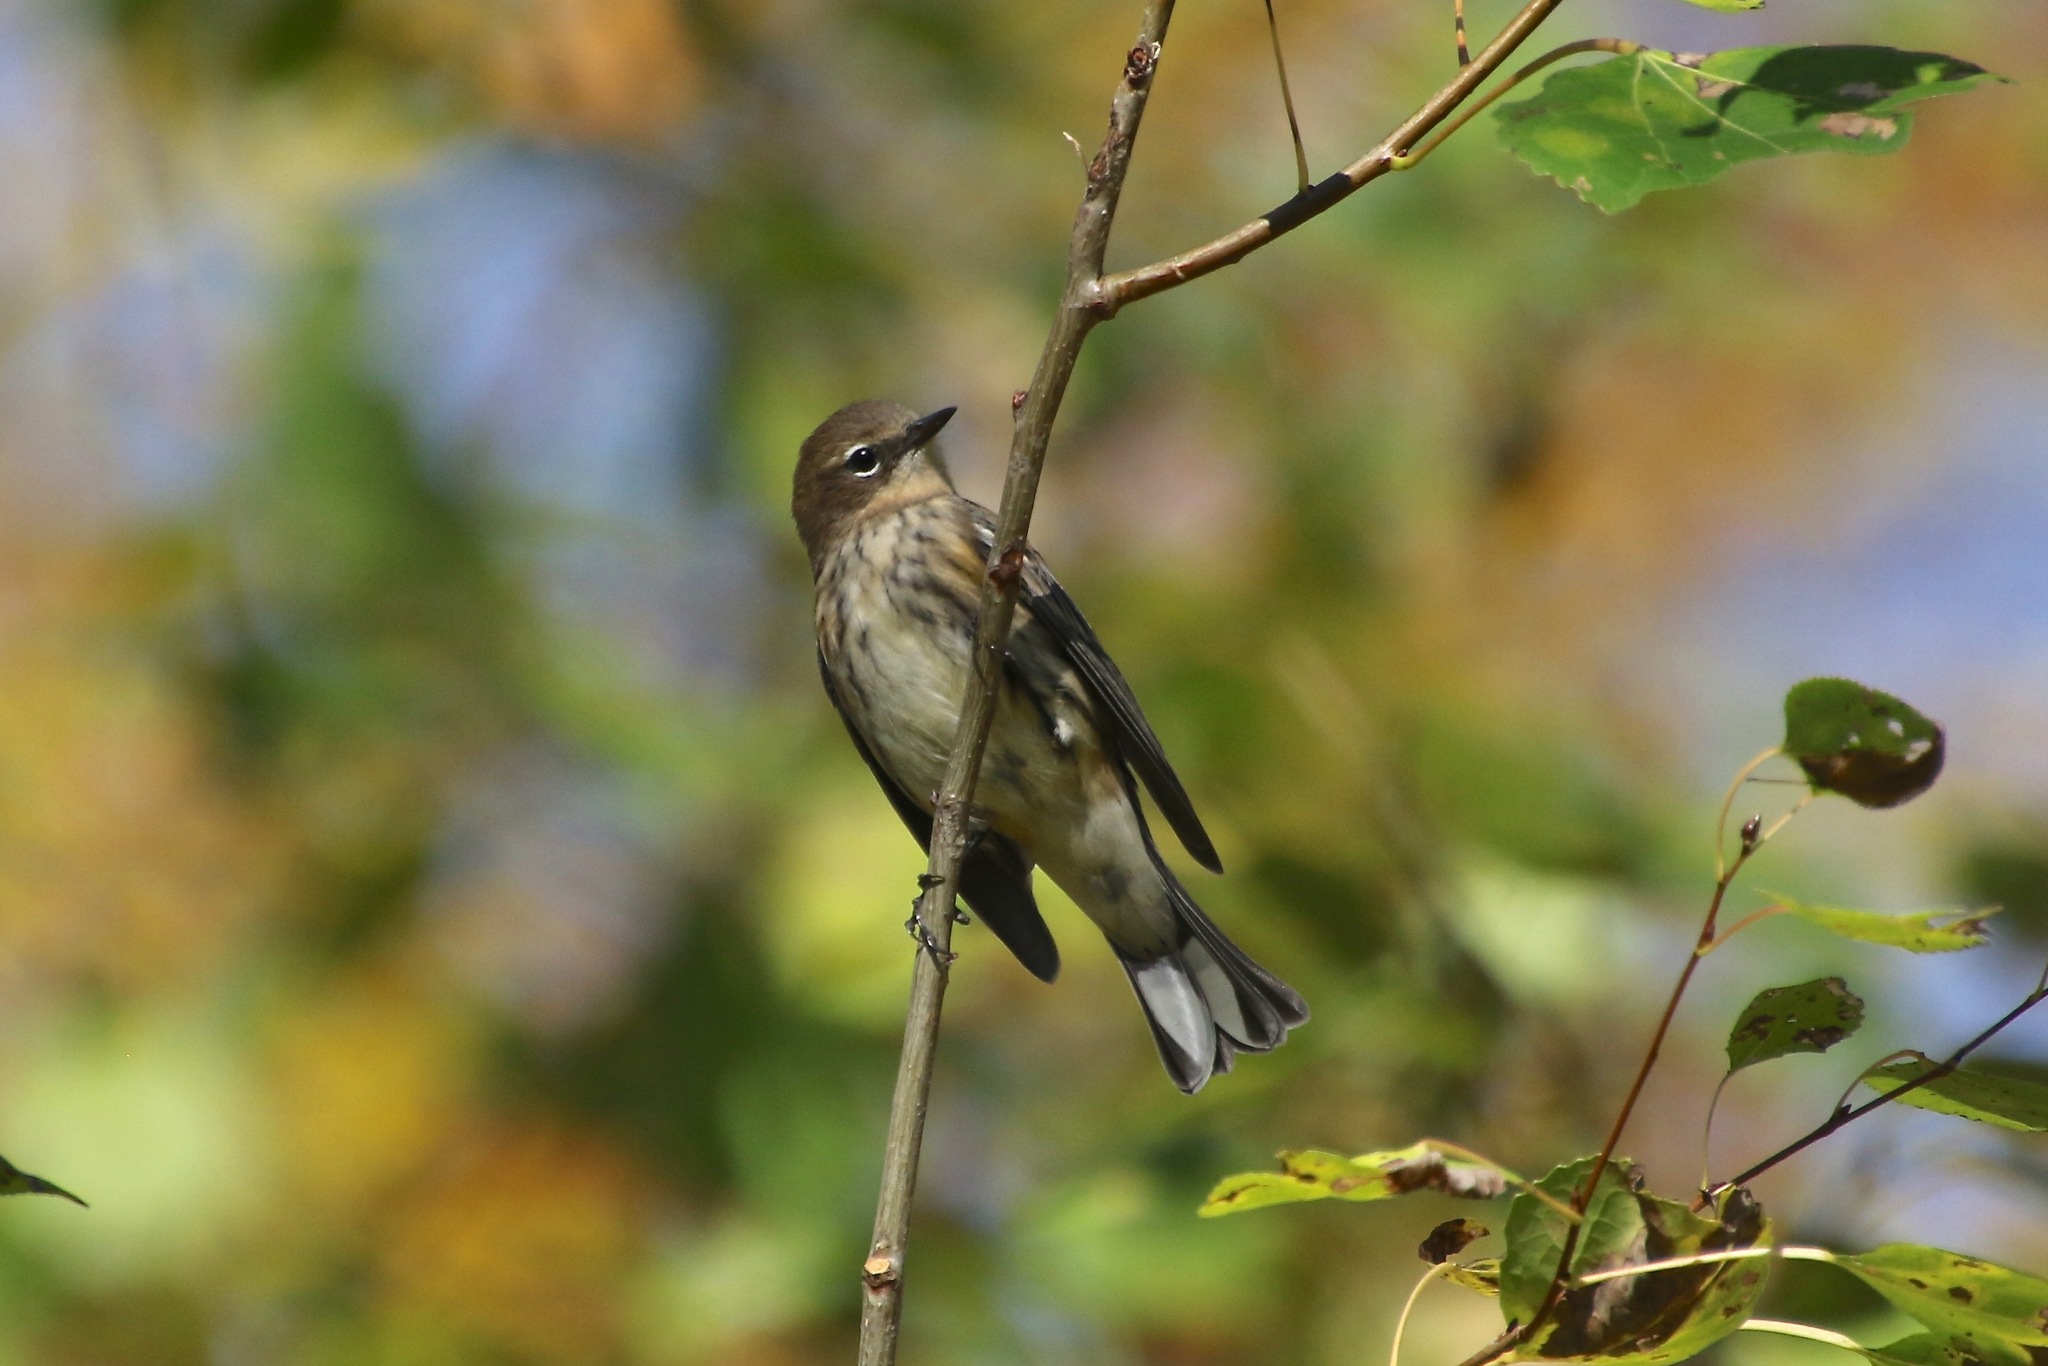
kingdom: Animalia
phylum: Chordata
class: Aves
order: Passeriformes
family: Parulidae
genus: Setophaga
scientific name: Setophaga coronata
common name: Myrtle warbler
